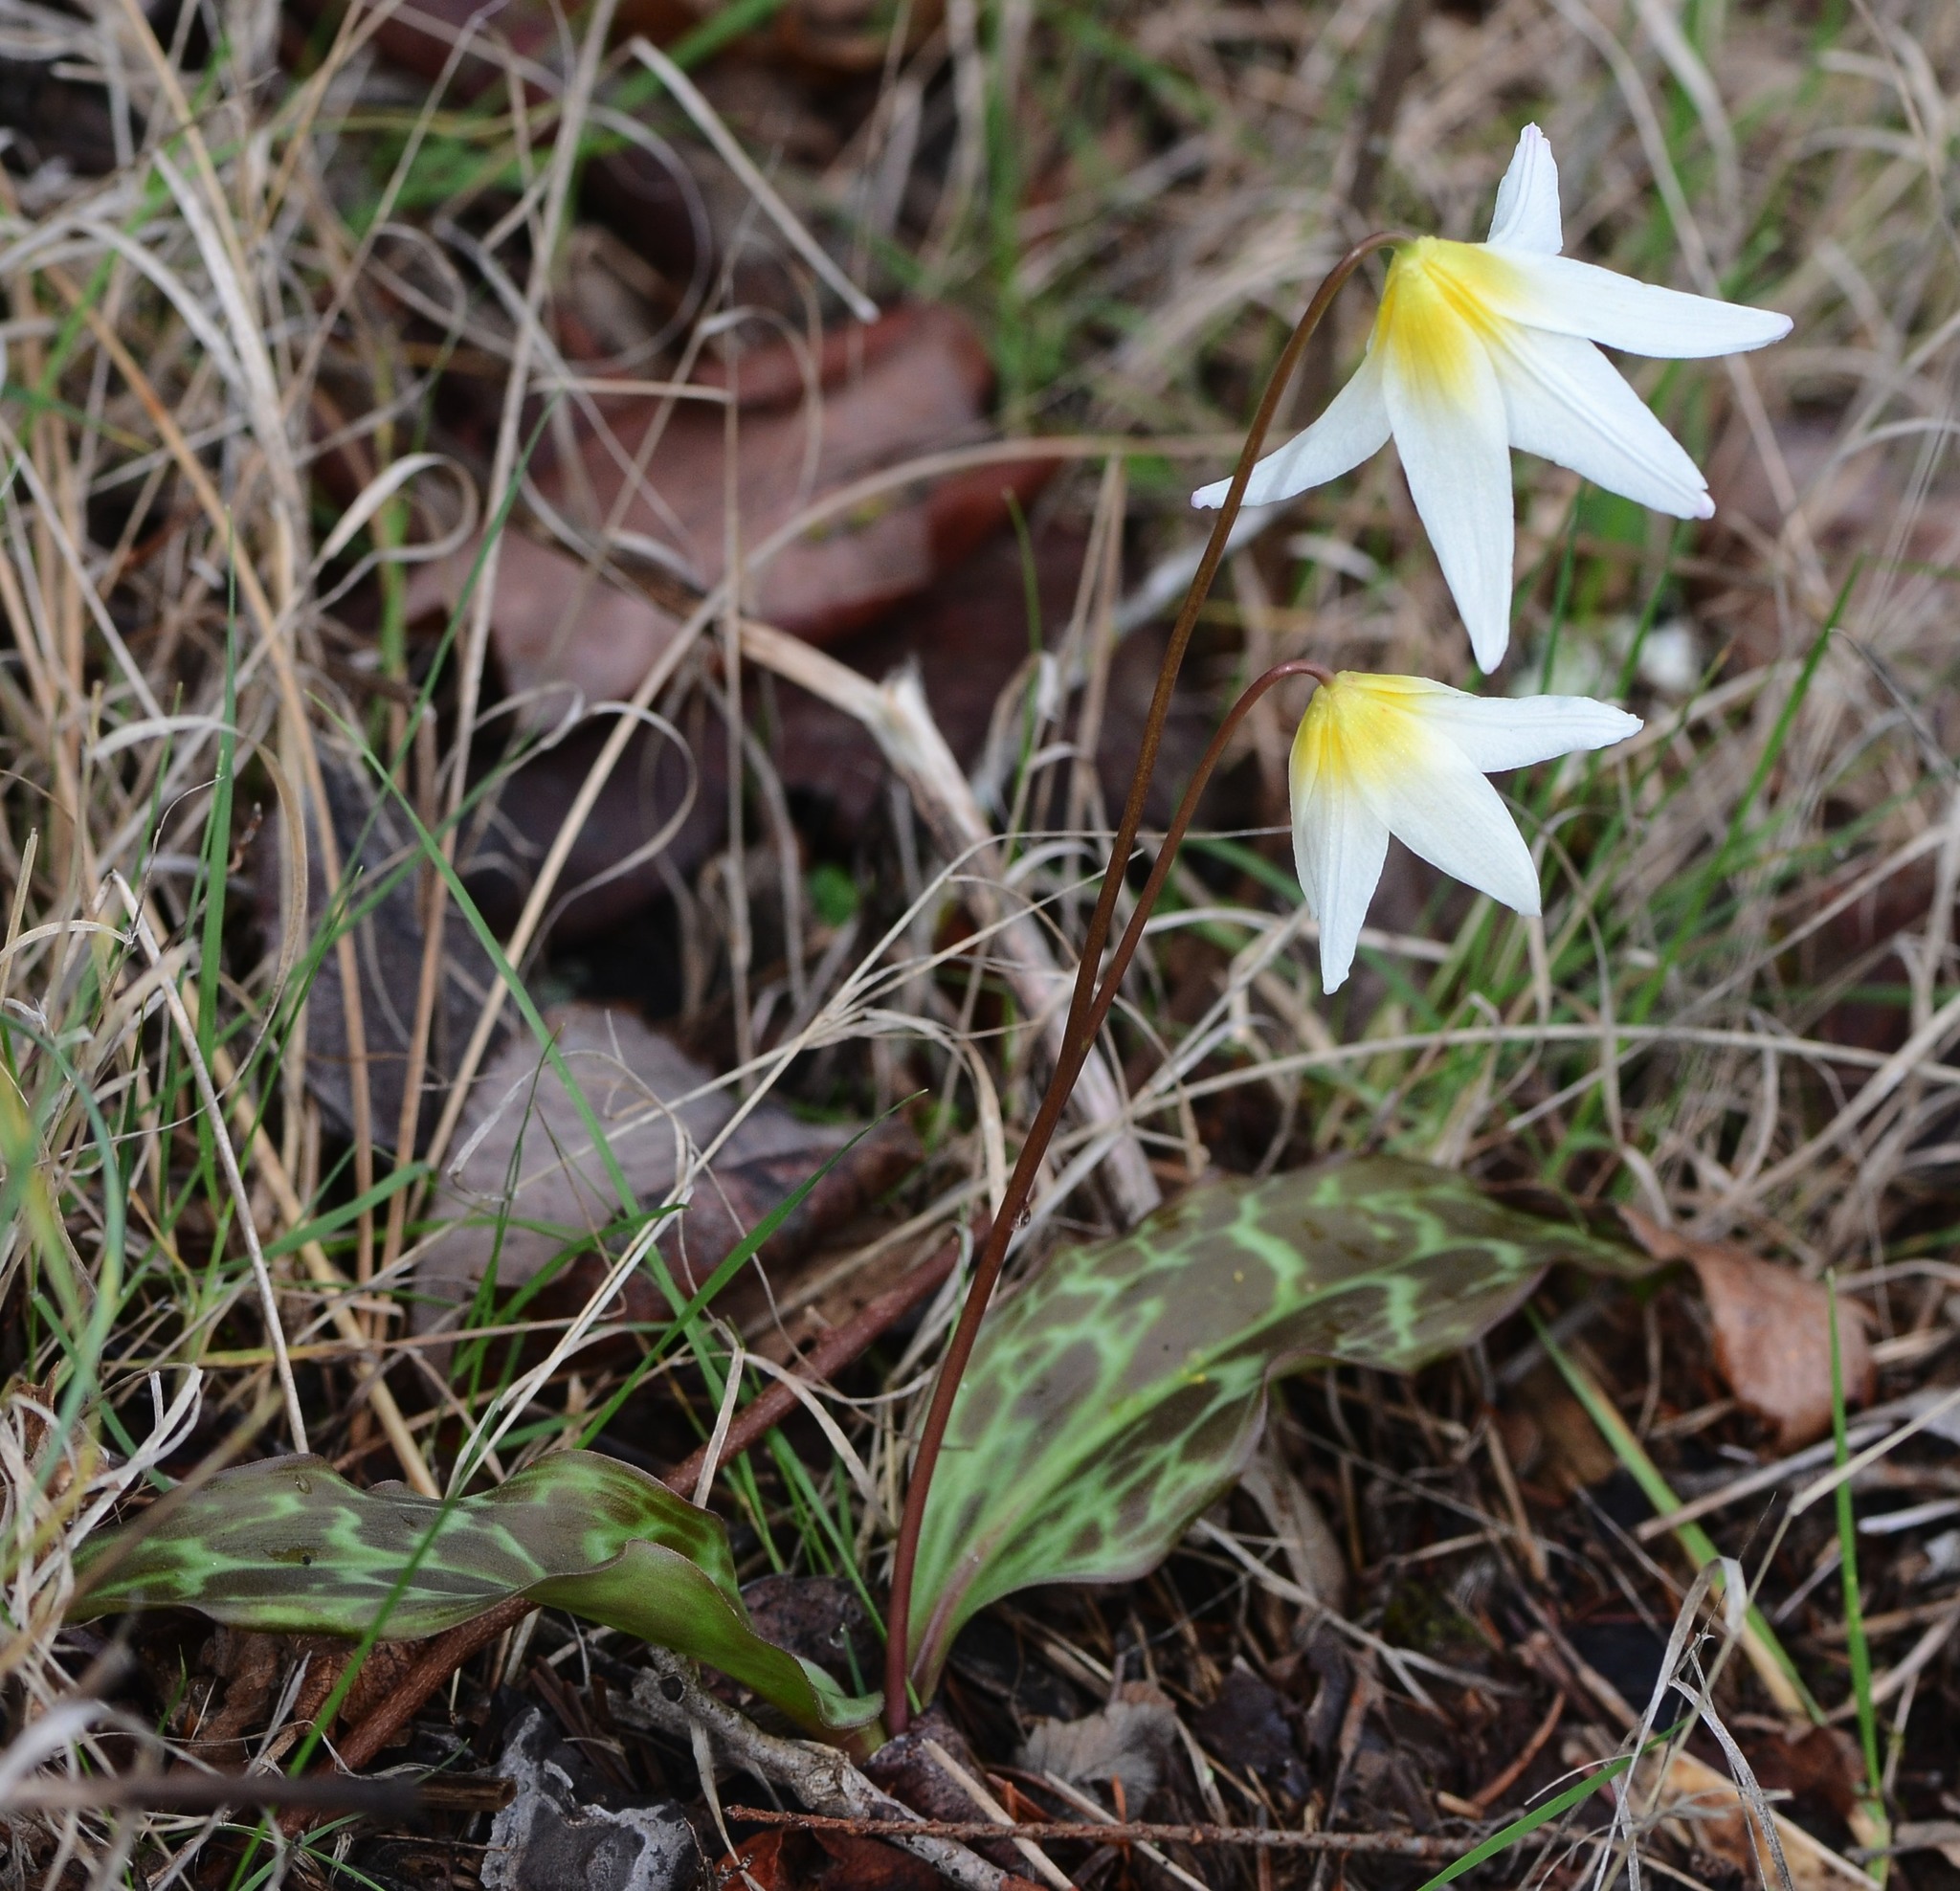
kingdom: Plantae
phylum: Tracheophyta
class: Liliopsida
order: Liliales
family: Liliaceae
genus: Erythronium
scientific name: Erythronium helenae
